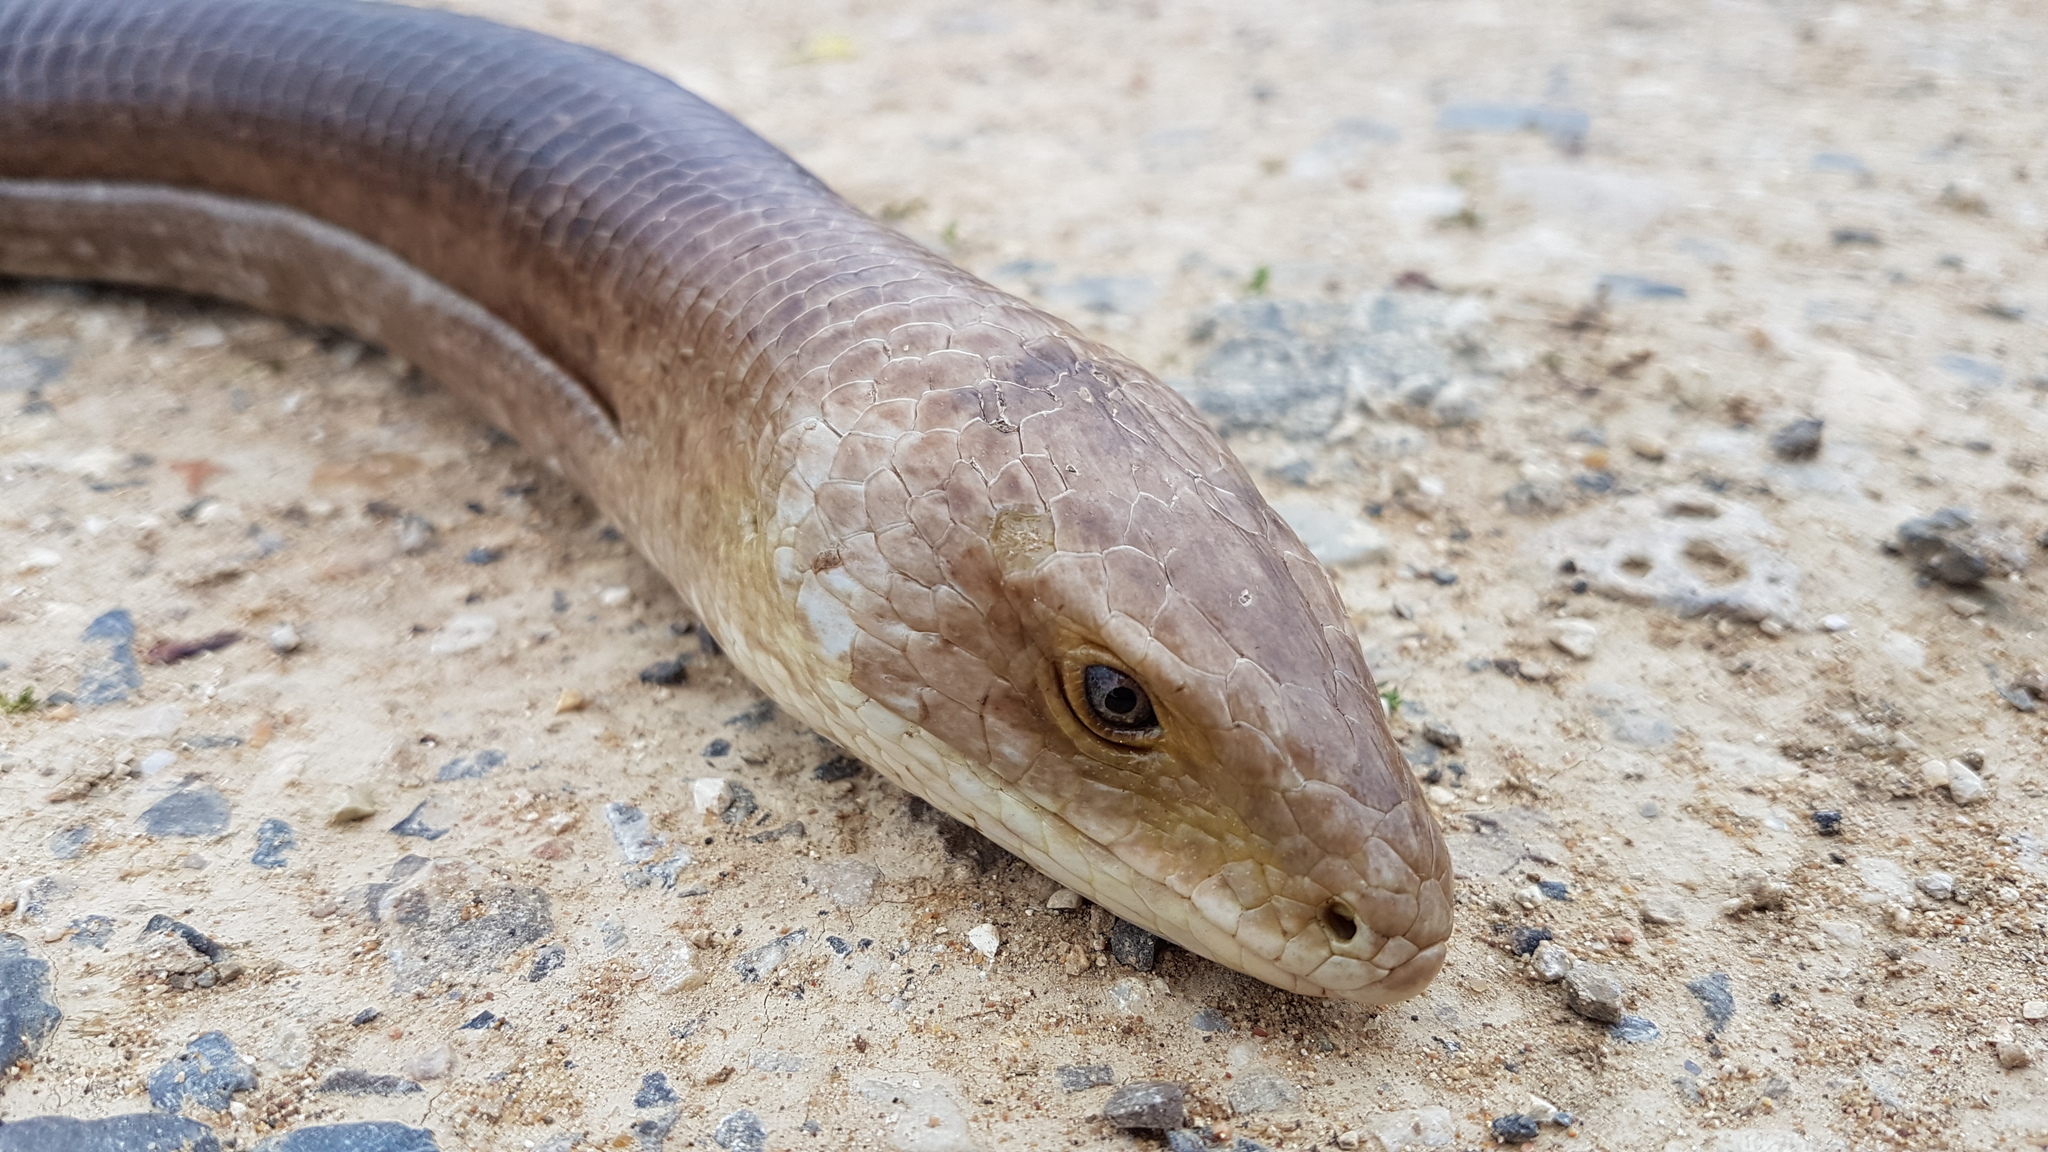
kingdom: Animalia
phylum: Chordata
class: Squamata
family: Anguidae
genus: Pseudopus
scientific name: Pseudopus apodus
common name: European glass lizard
